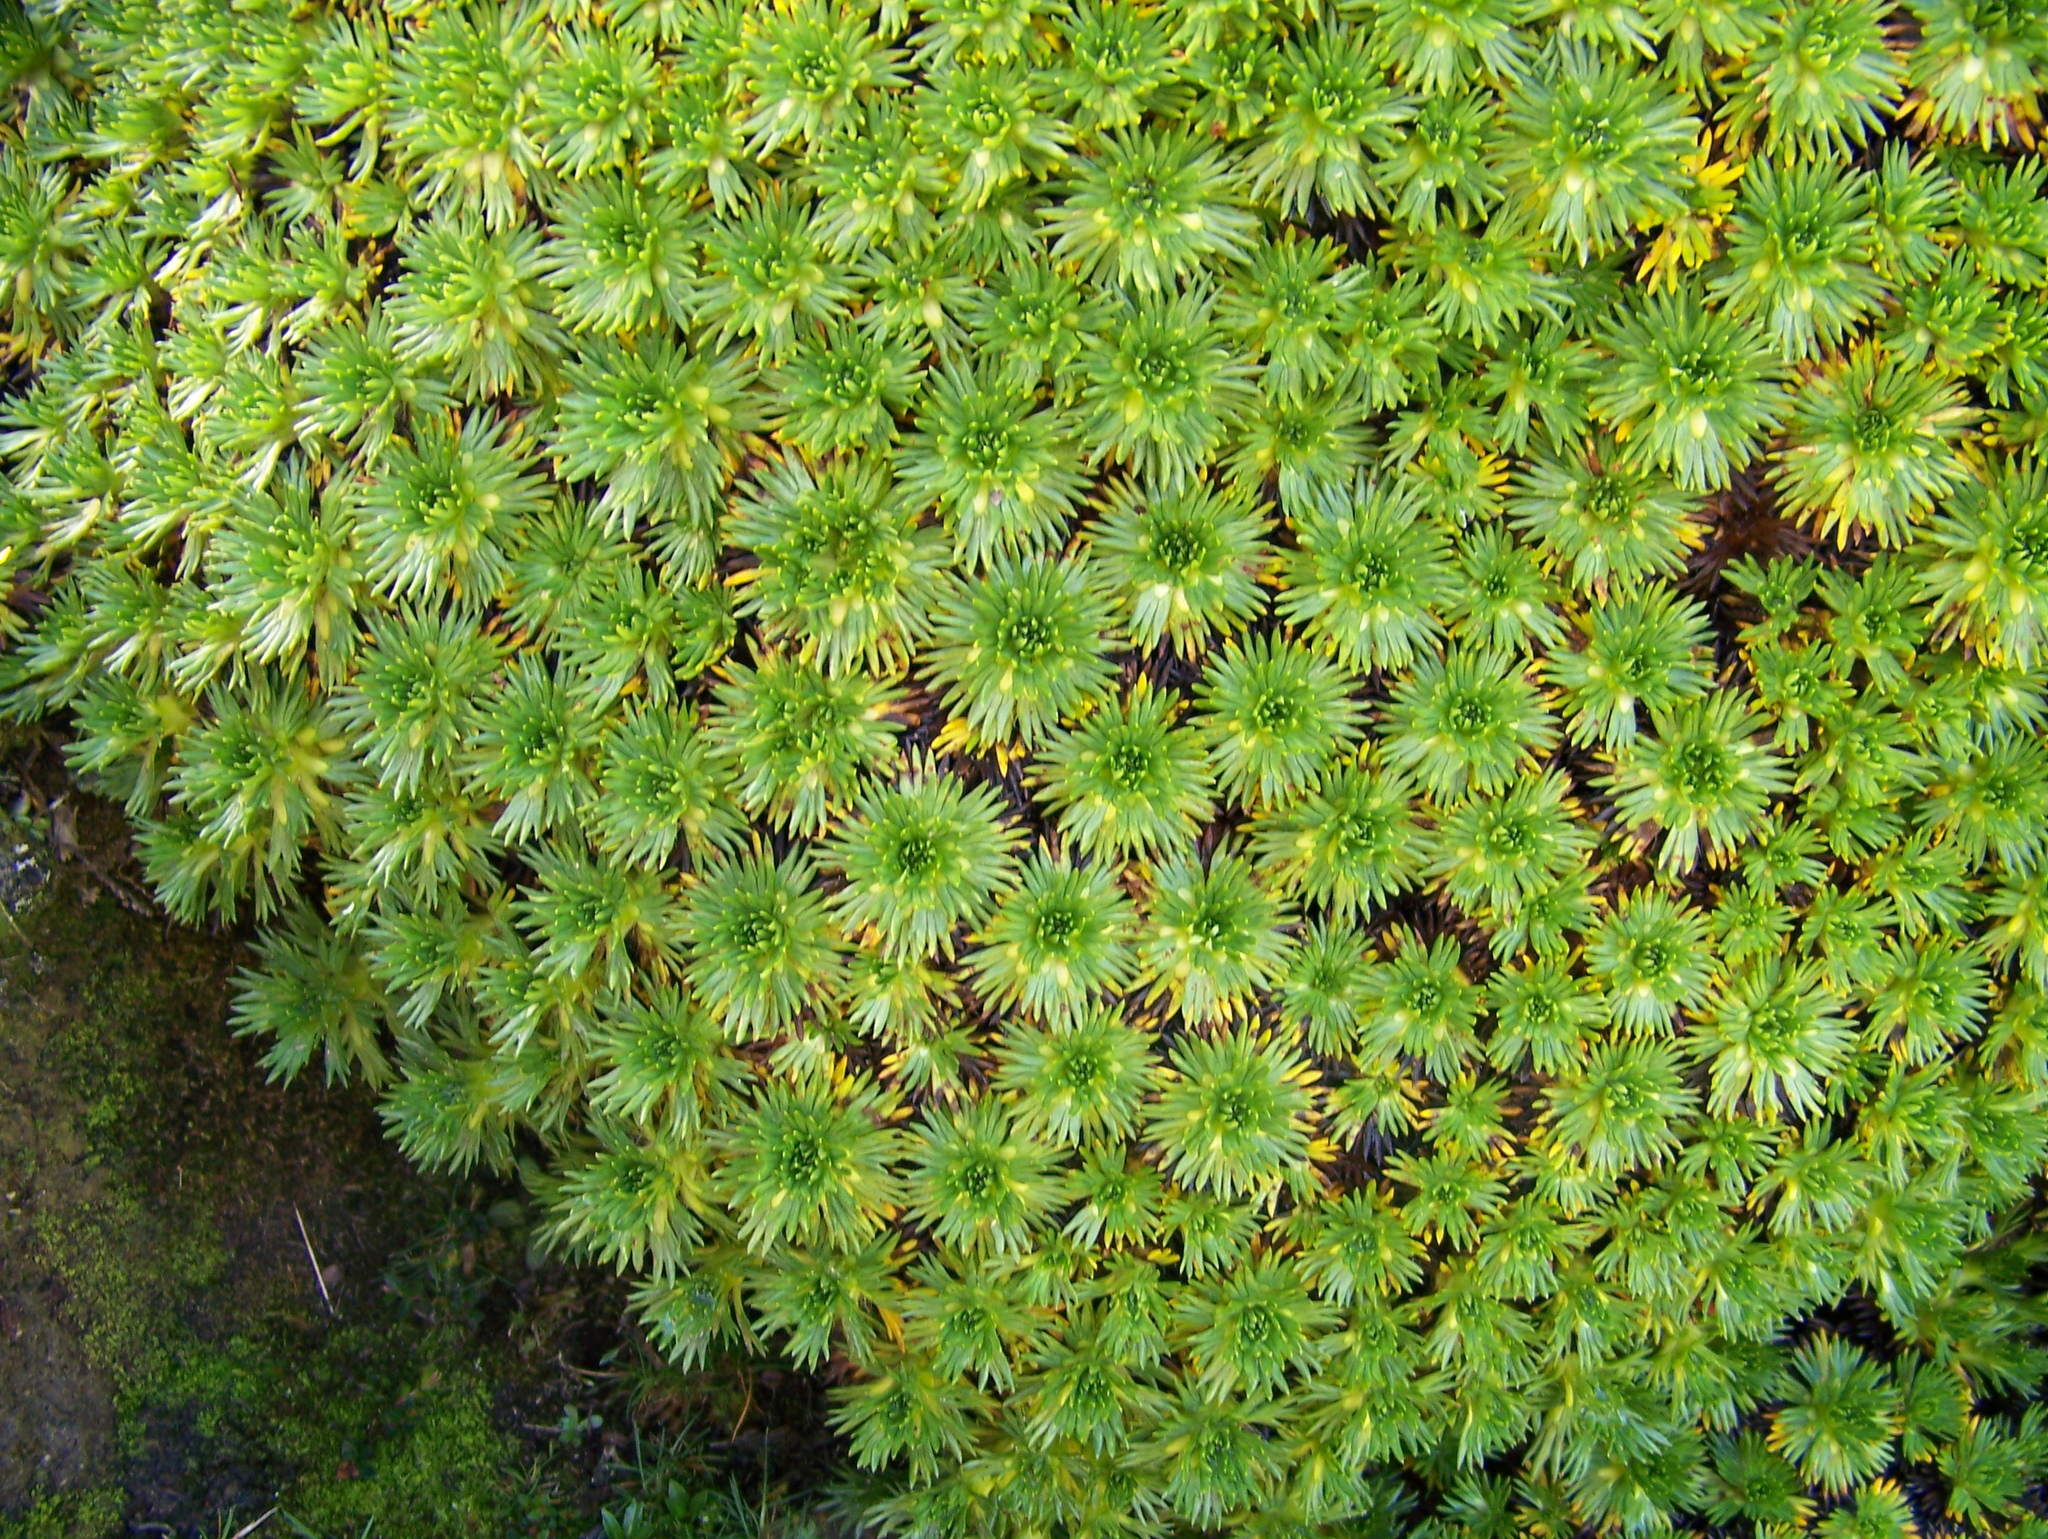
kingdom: Plantae
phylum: Tracheophyta
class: Magnoliopsida
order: Apiales
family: Apiaceae
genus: Azorella
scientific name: Azorella pedunculata
